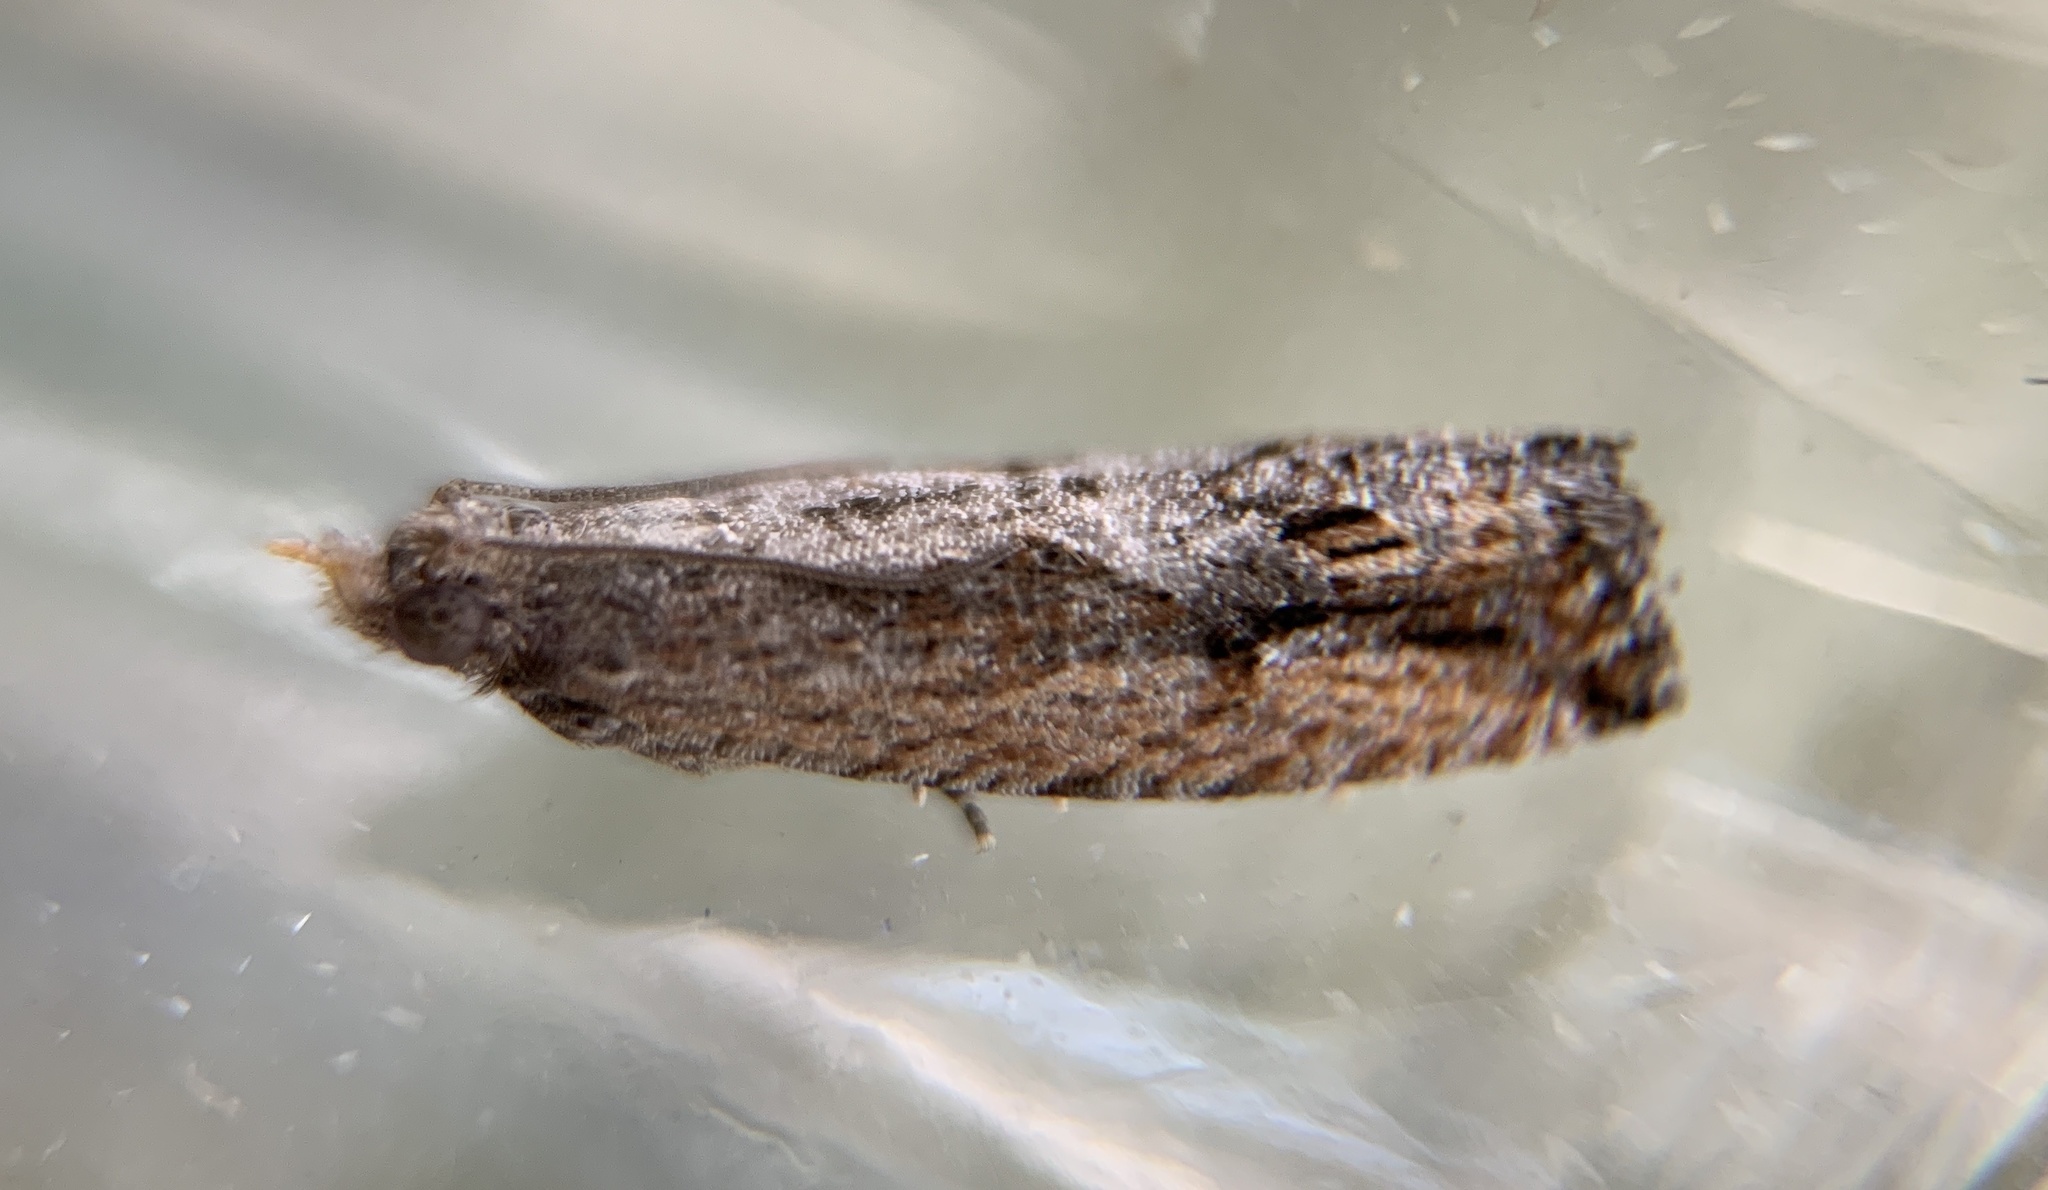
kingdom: Animalia
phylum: Arthropoda
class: Insecta
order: Lepidoptera
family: Tortricidae
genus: Strepsicrates
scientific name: Strepsicrates smithiana
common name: Bayberry leaftier moth
